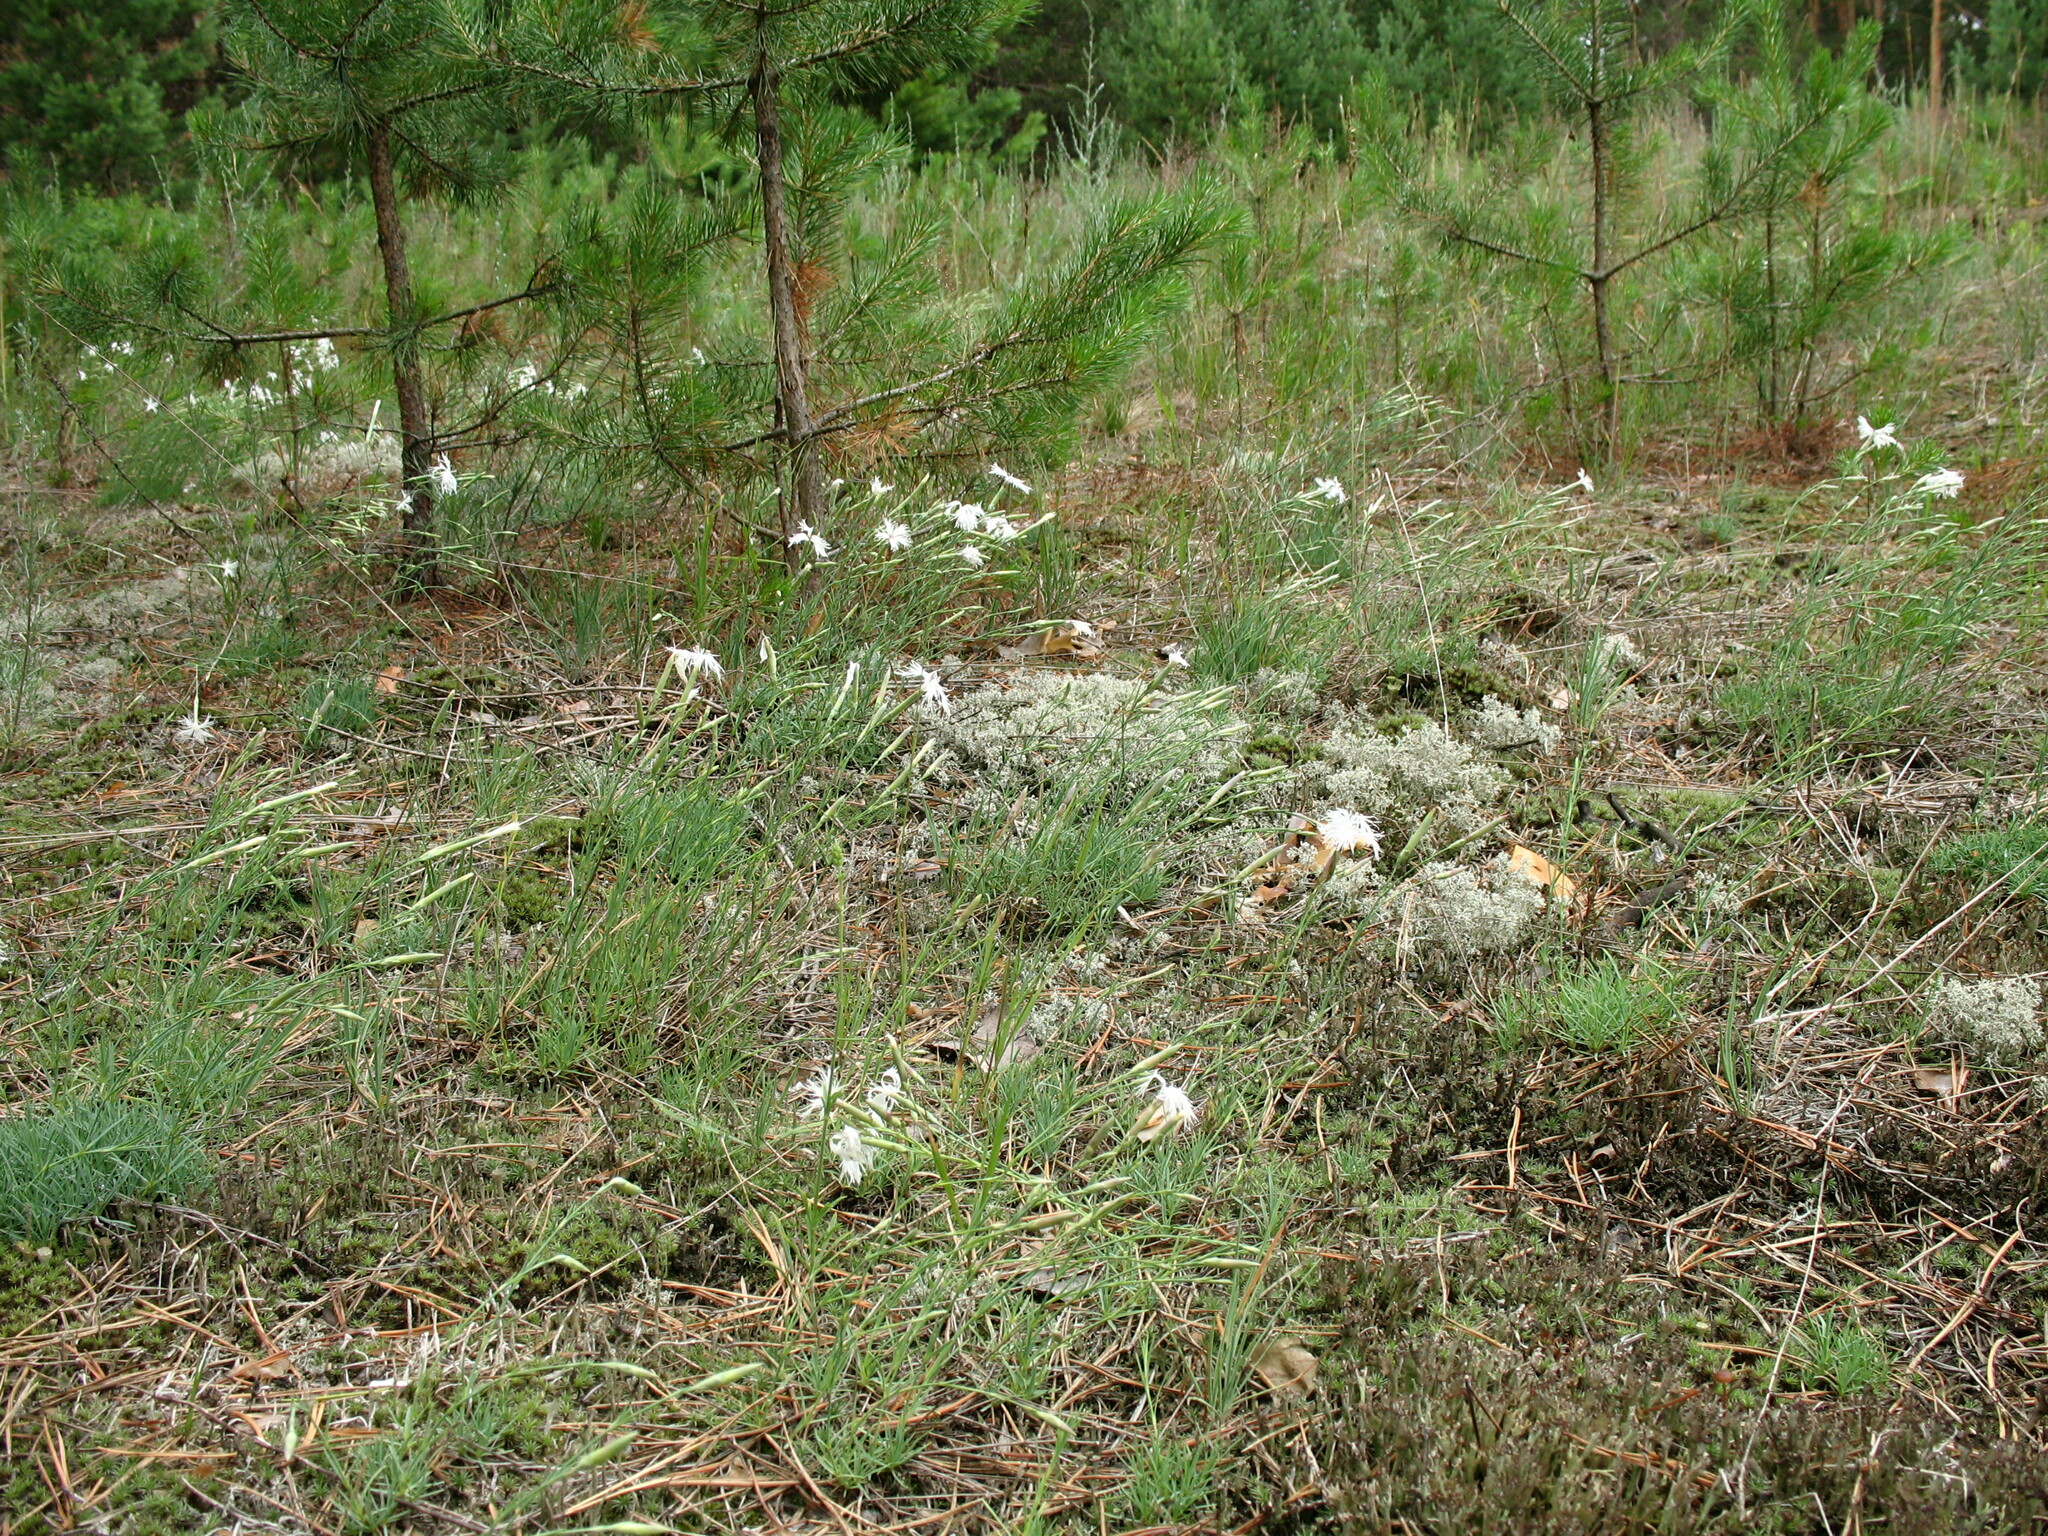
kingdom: Plantae
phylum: Tracheophyta
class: Magnoliopsida
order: Caryophyllales
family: Caryophyllaceae
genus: Dianthus
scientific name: Dianthus arenarius
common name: Stone pink
